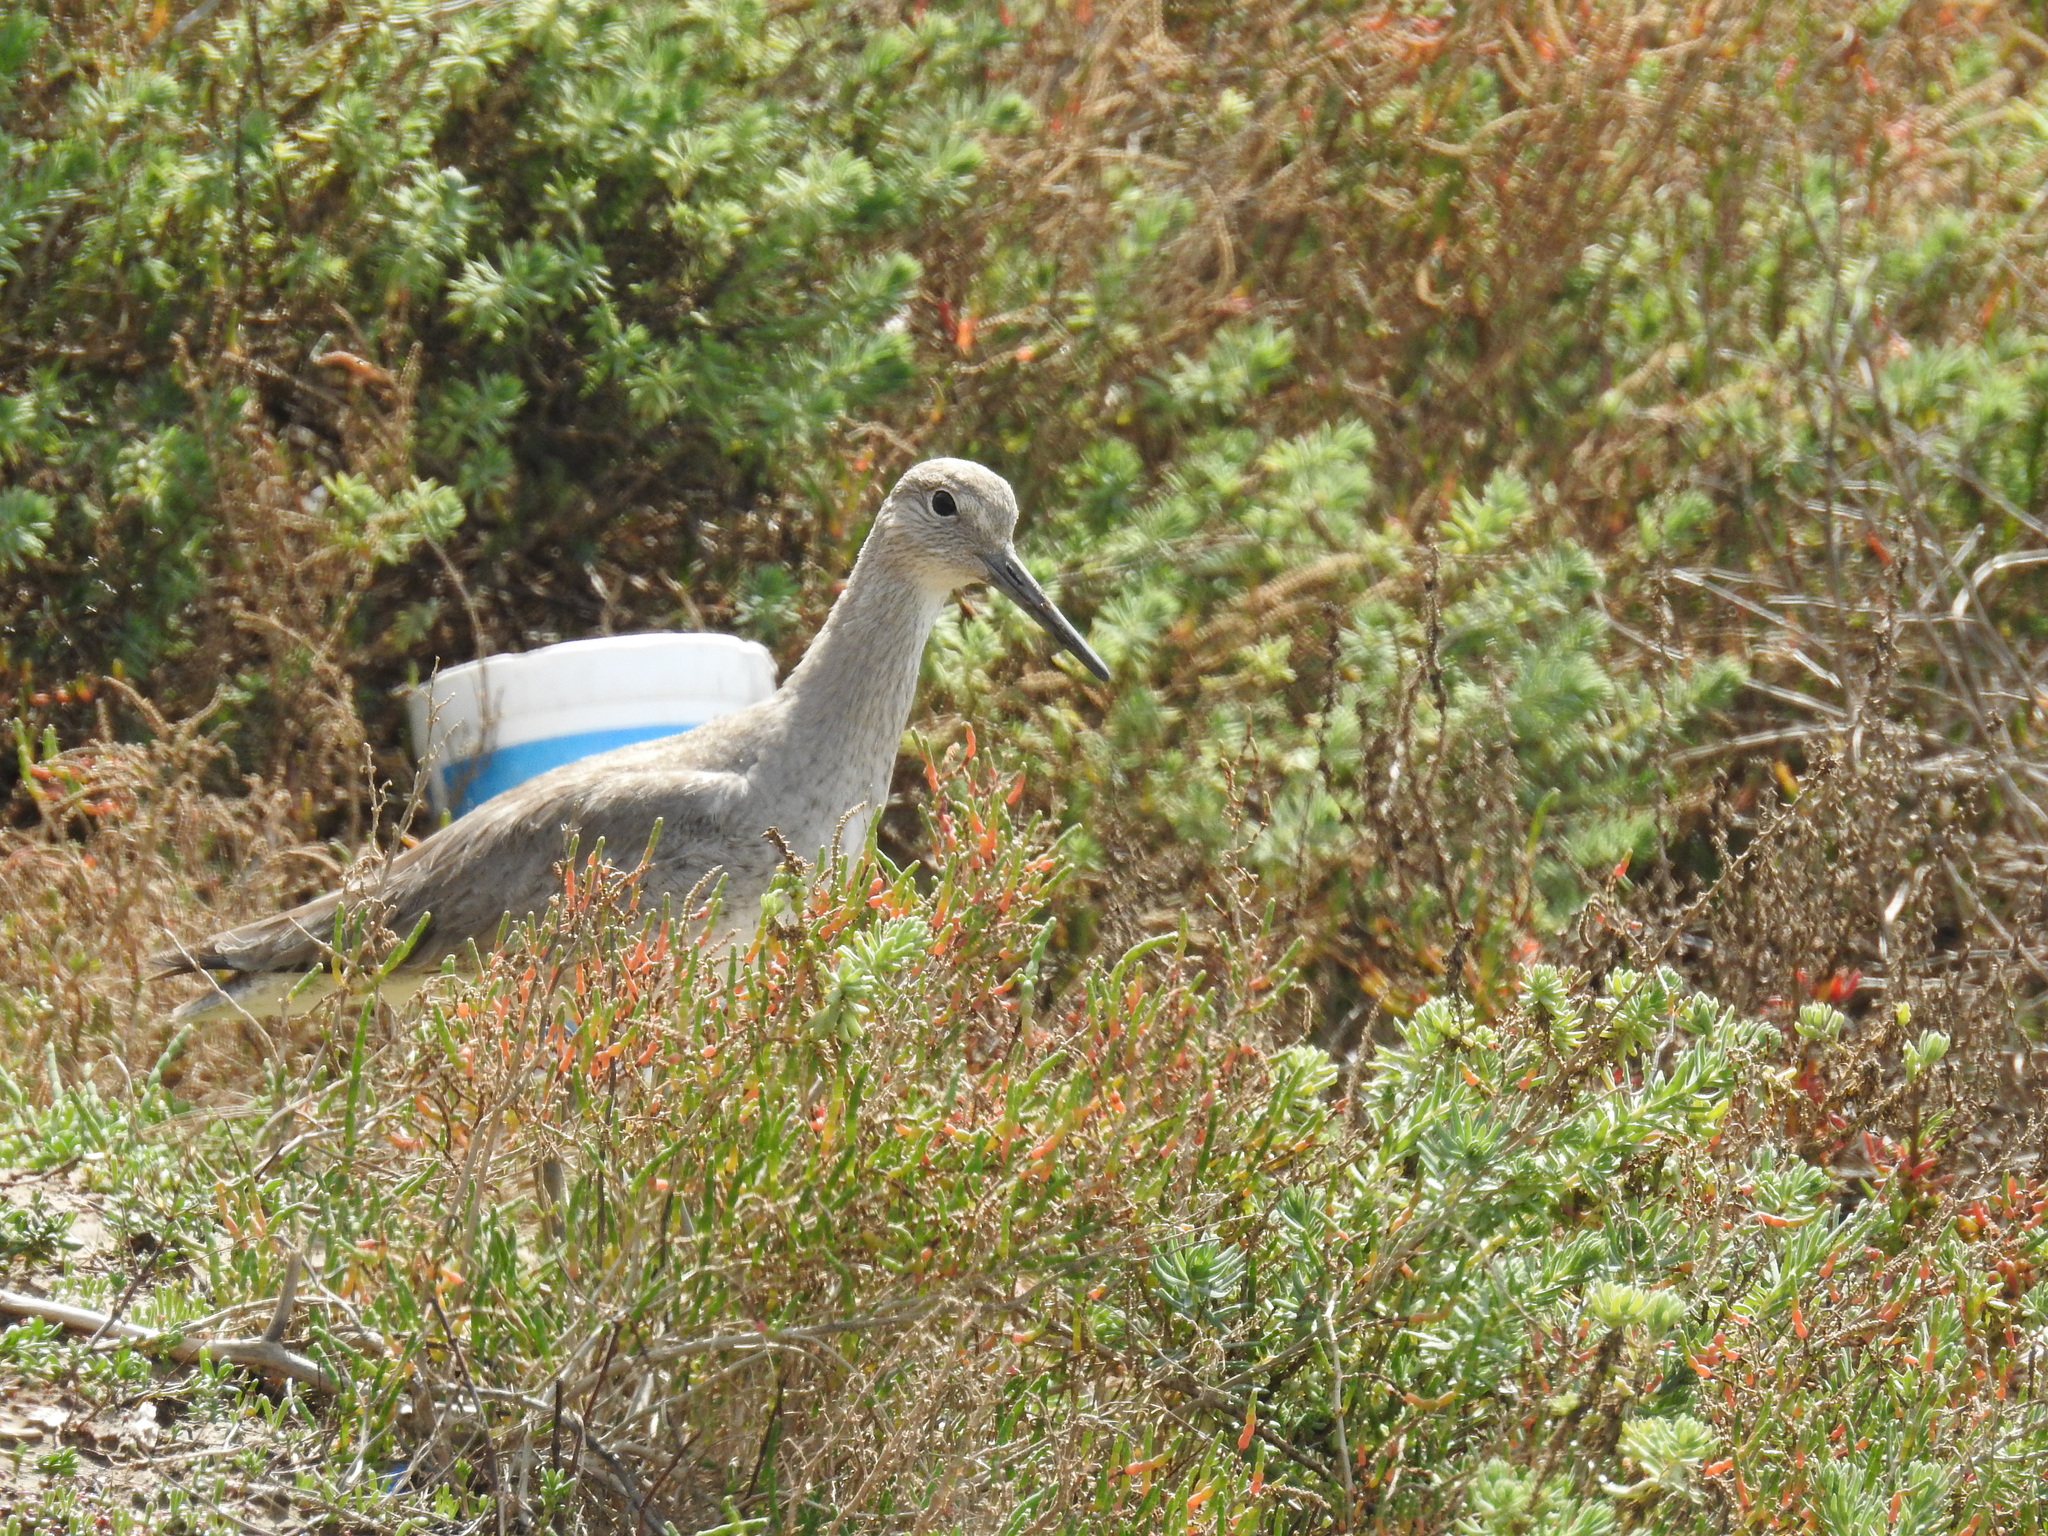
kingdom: Animalia
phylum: Chordata
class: Aves
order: Charadriiformes
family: Scolopacidae
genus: Tringa
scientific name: Tringa semipalmata
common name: Willet
